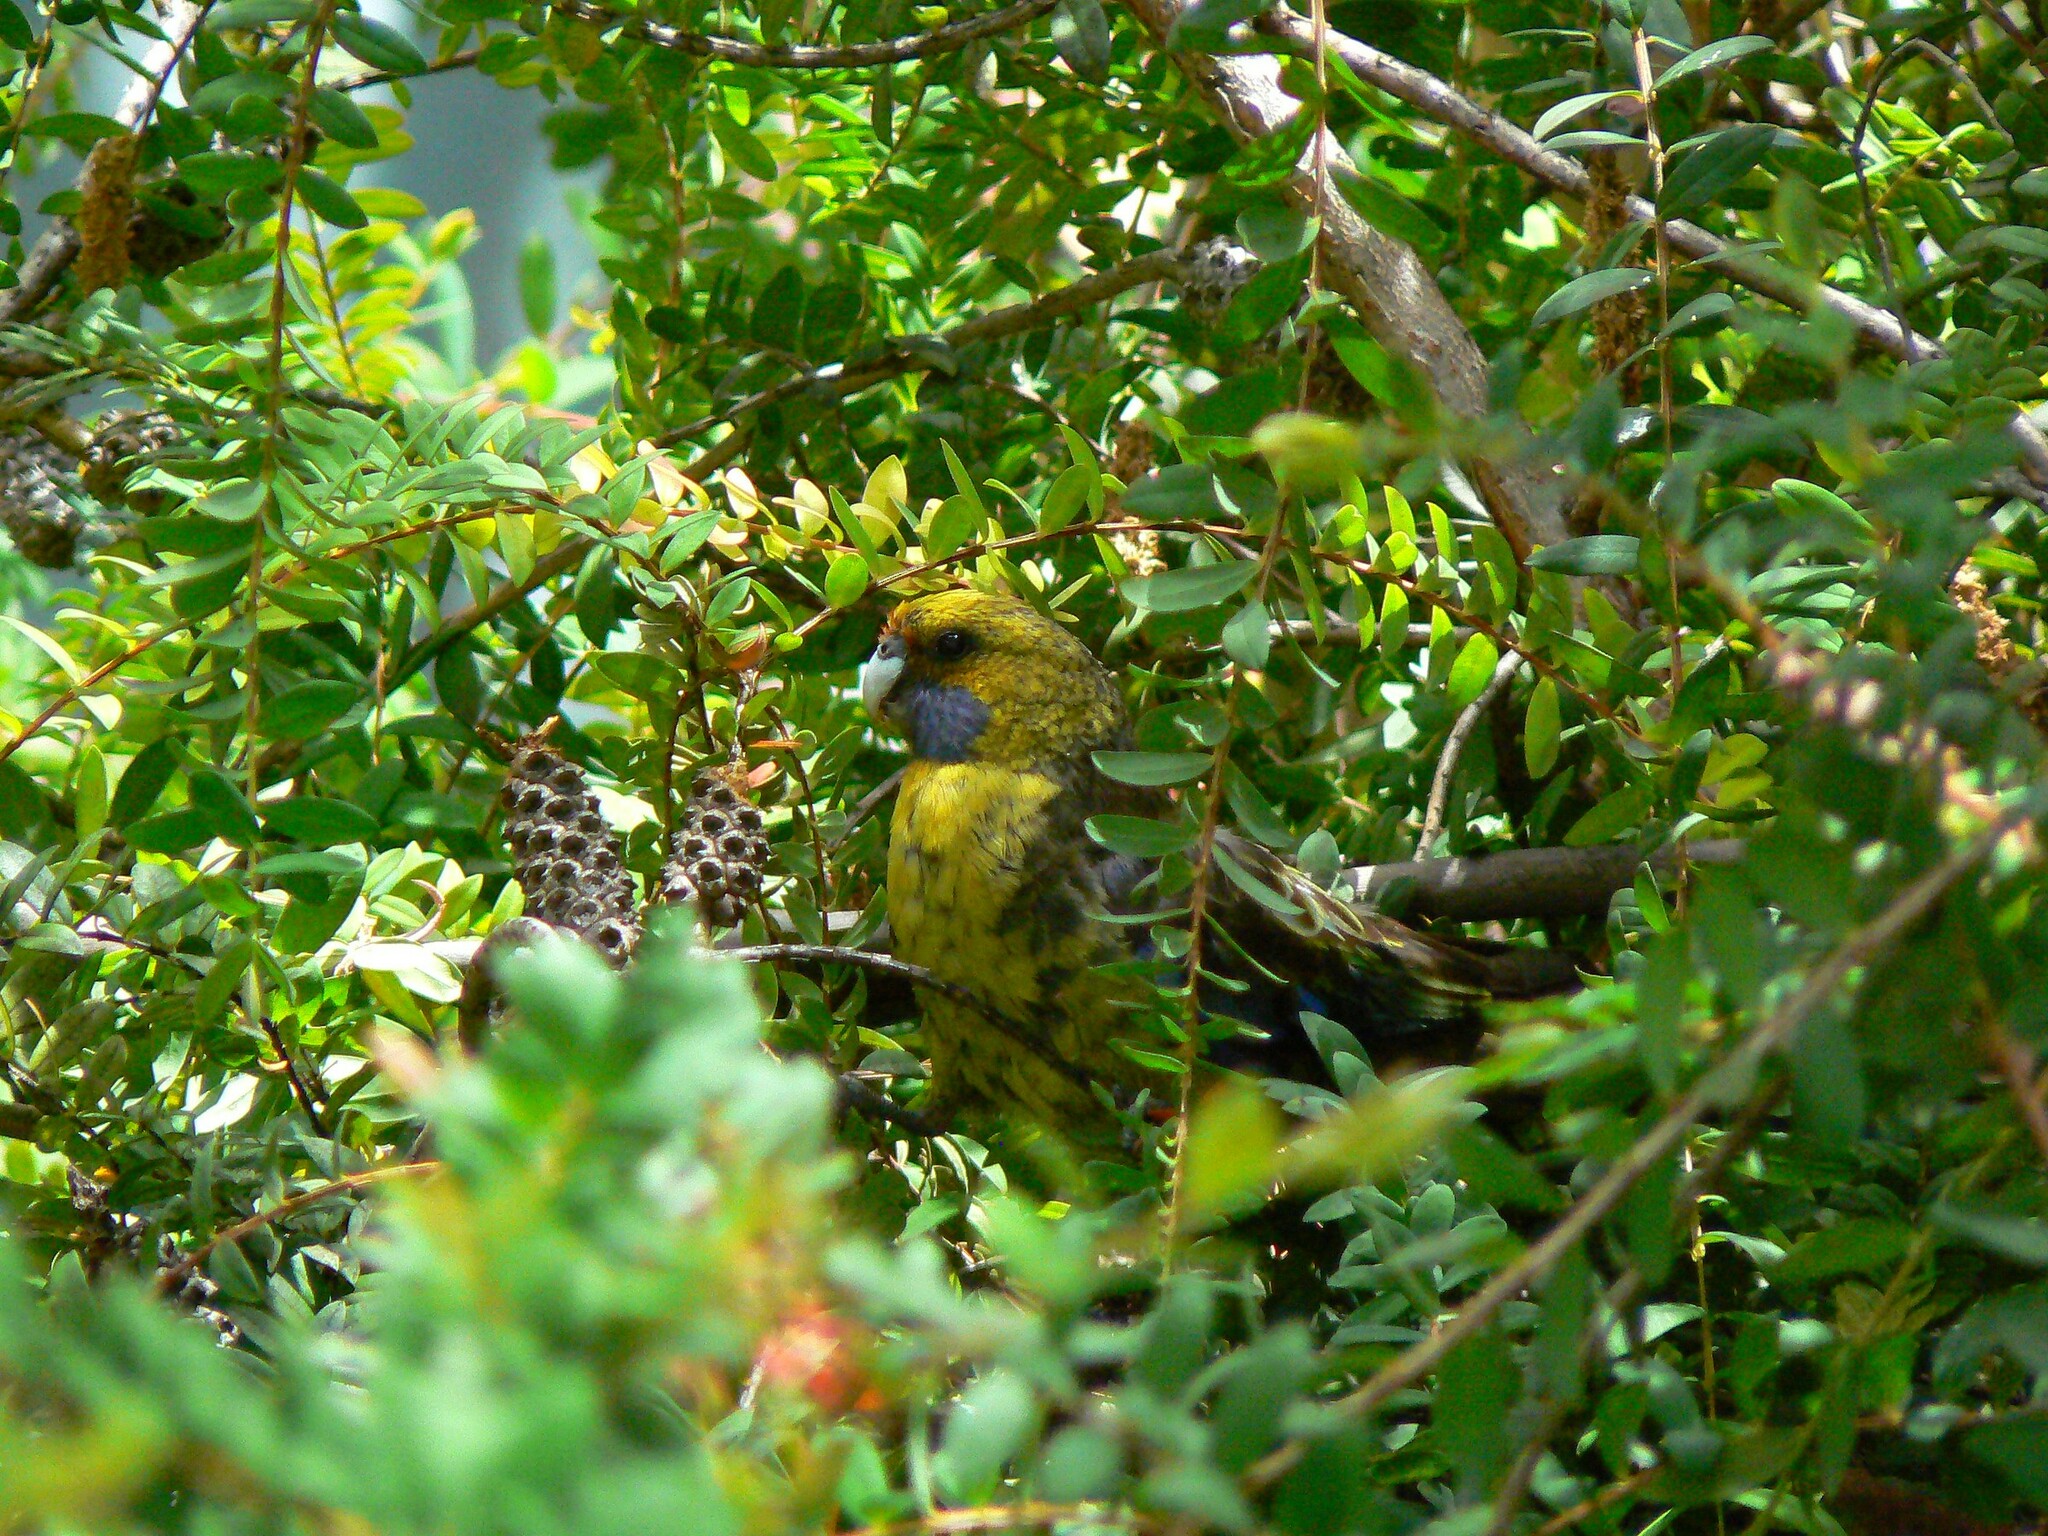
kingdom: Animalia
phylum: Chordata
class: Aves
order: Psittaciformes
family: Psittacidae
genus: Platycercus
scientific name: Platycercus caledonicus
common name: Green rosella
